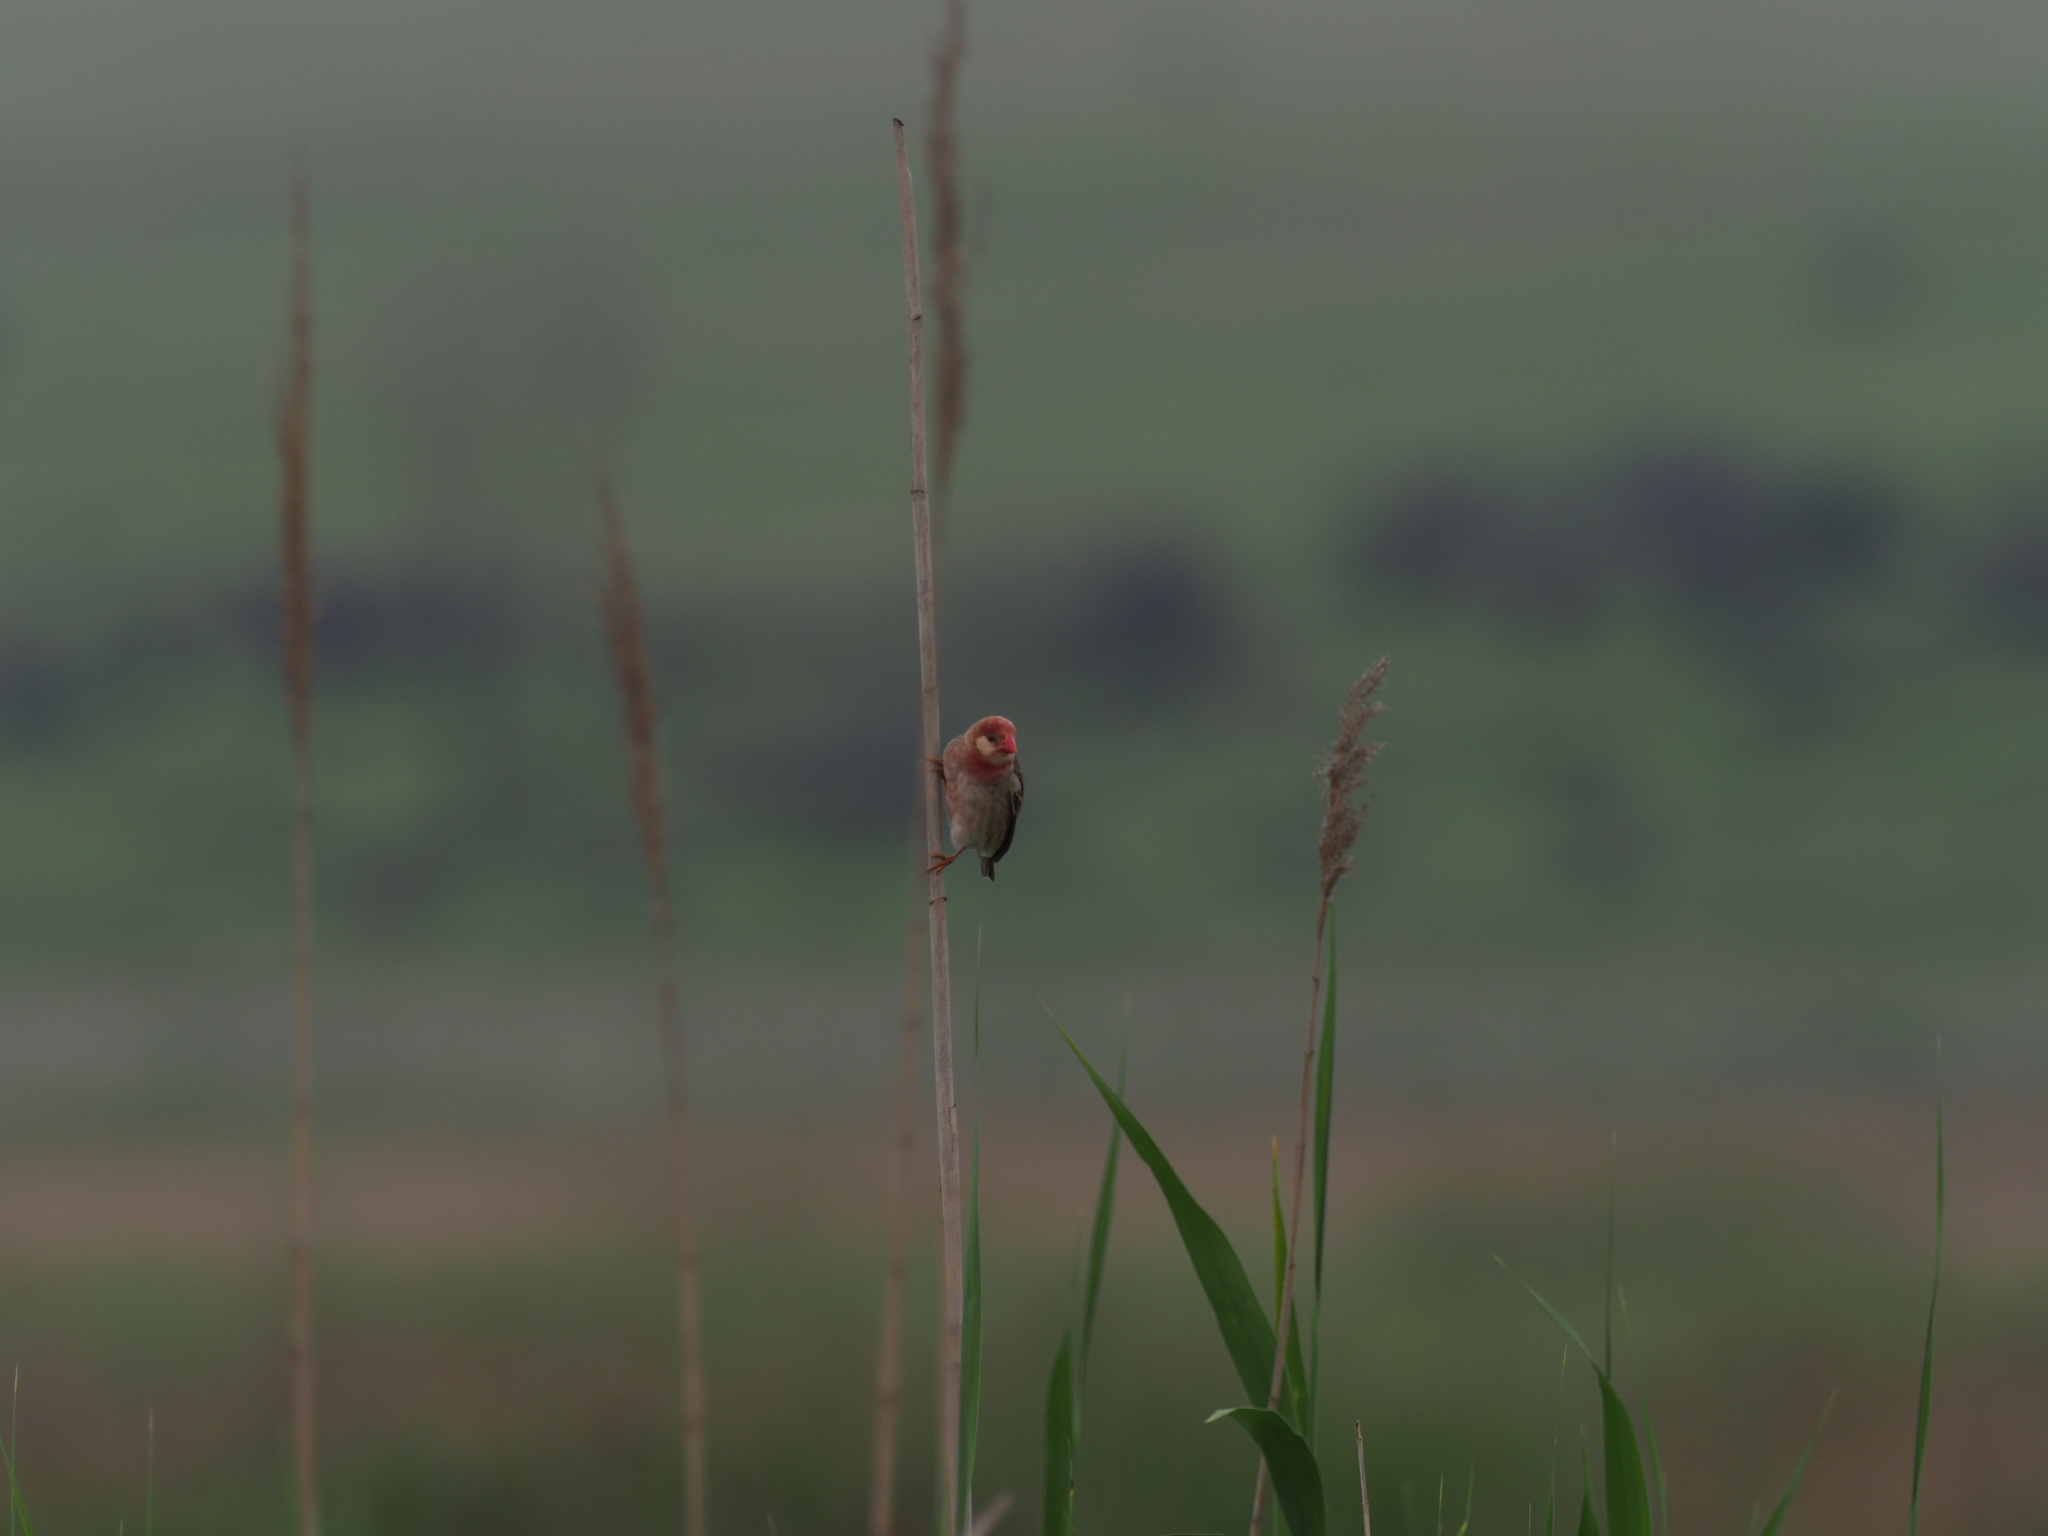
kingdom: Animalia
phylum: Chordata
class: Aves
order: Passeriformes
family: Ploceidae
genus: Quelea
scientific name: Quelea quelea
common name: Red-billed quelea
